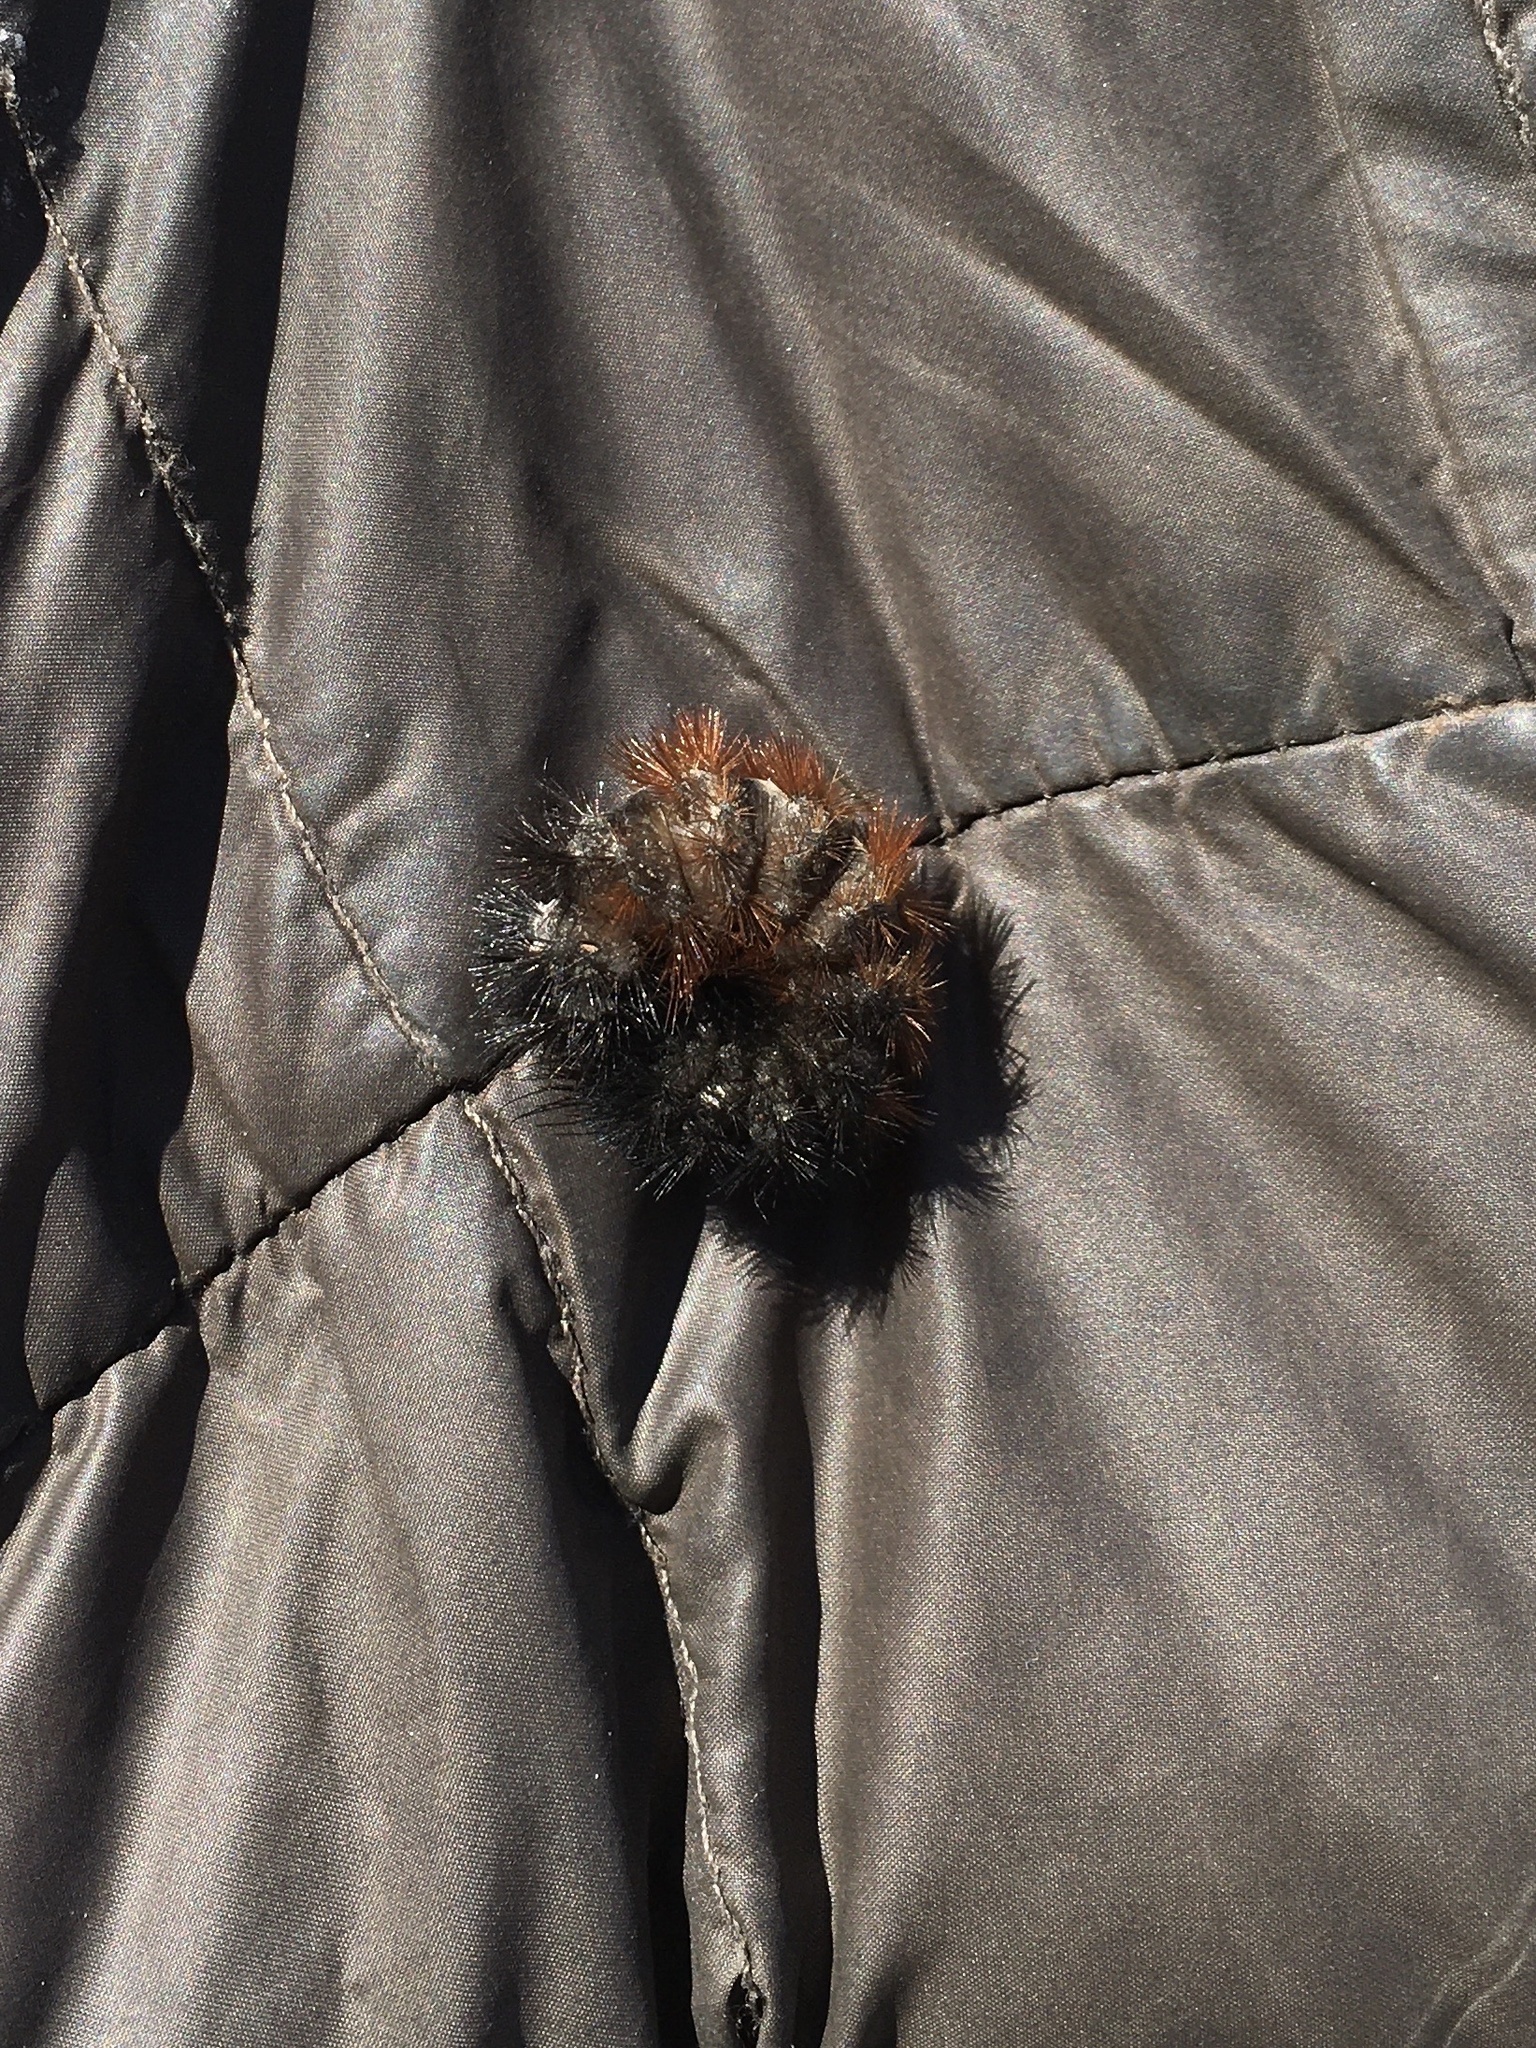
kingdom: Animalia
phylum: Arthropoda
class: Insecta
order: Lepidoptera
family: Erebidae
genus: Pyrrharctia
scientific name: Pyrrharctia isabella
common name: Isabella tiger moth
